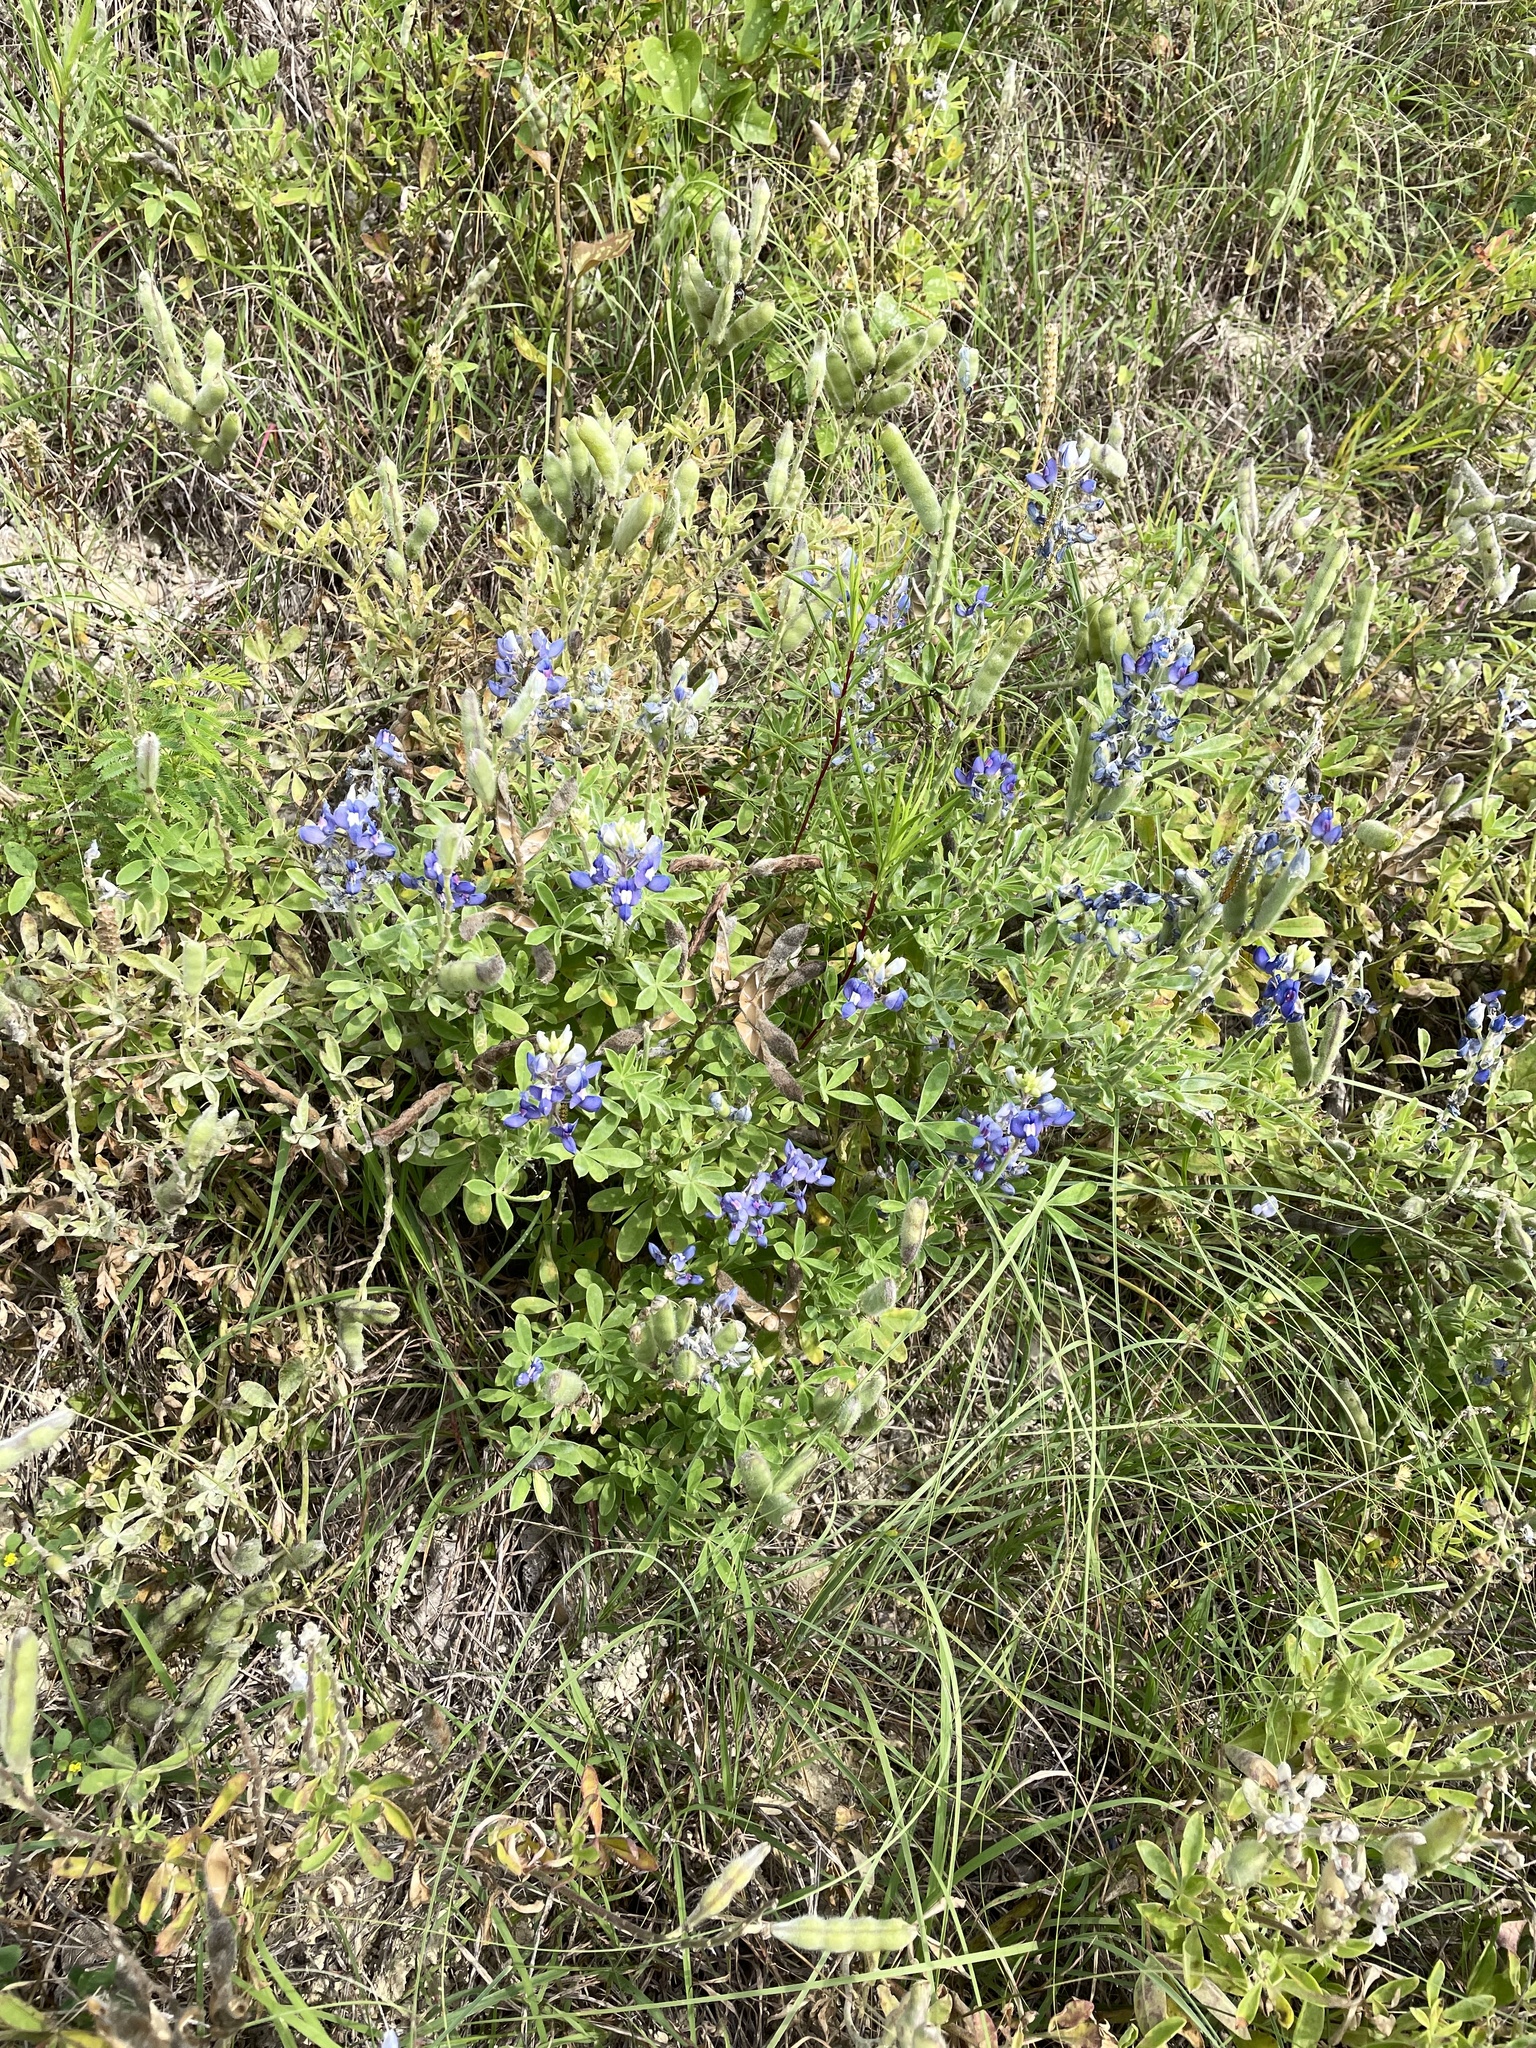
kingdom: Plantae
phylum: Tracheophyta
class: Magnoliopsida
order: Fabales
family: Fabaceae
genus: Lupinus
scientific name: Lupinus texensis
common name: Texas bluebonnet
